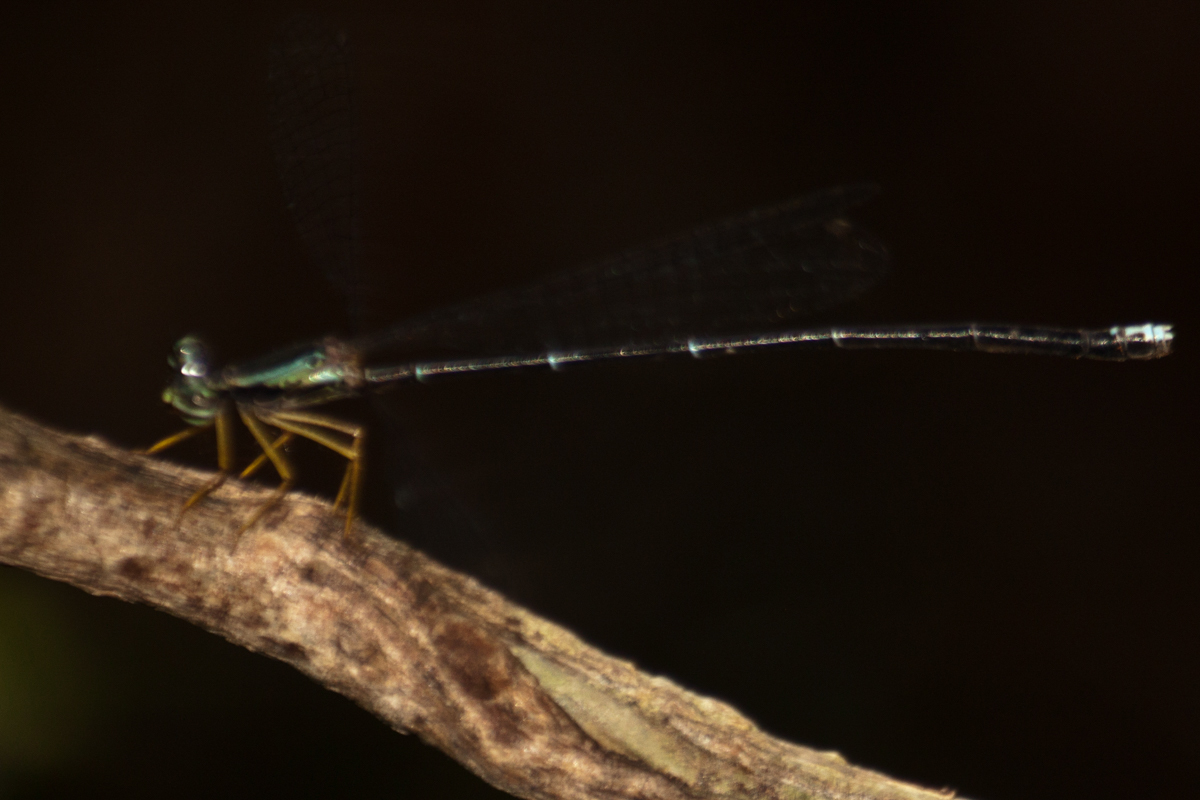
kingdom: Animalia
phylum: Arthropoda
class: Insecta
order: Odonata
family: Platycnemididae
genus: Copera
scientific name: Copera vittata
